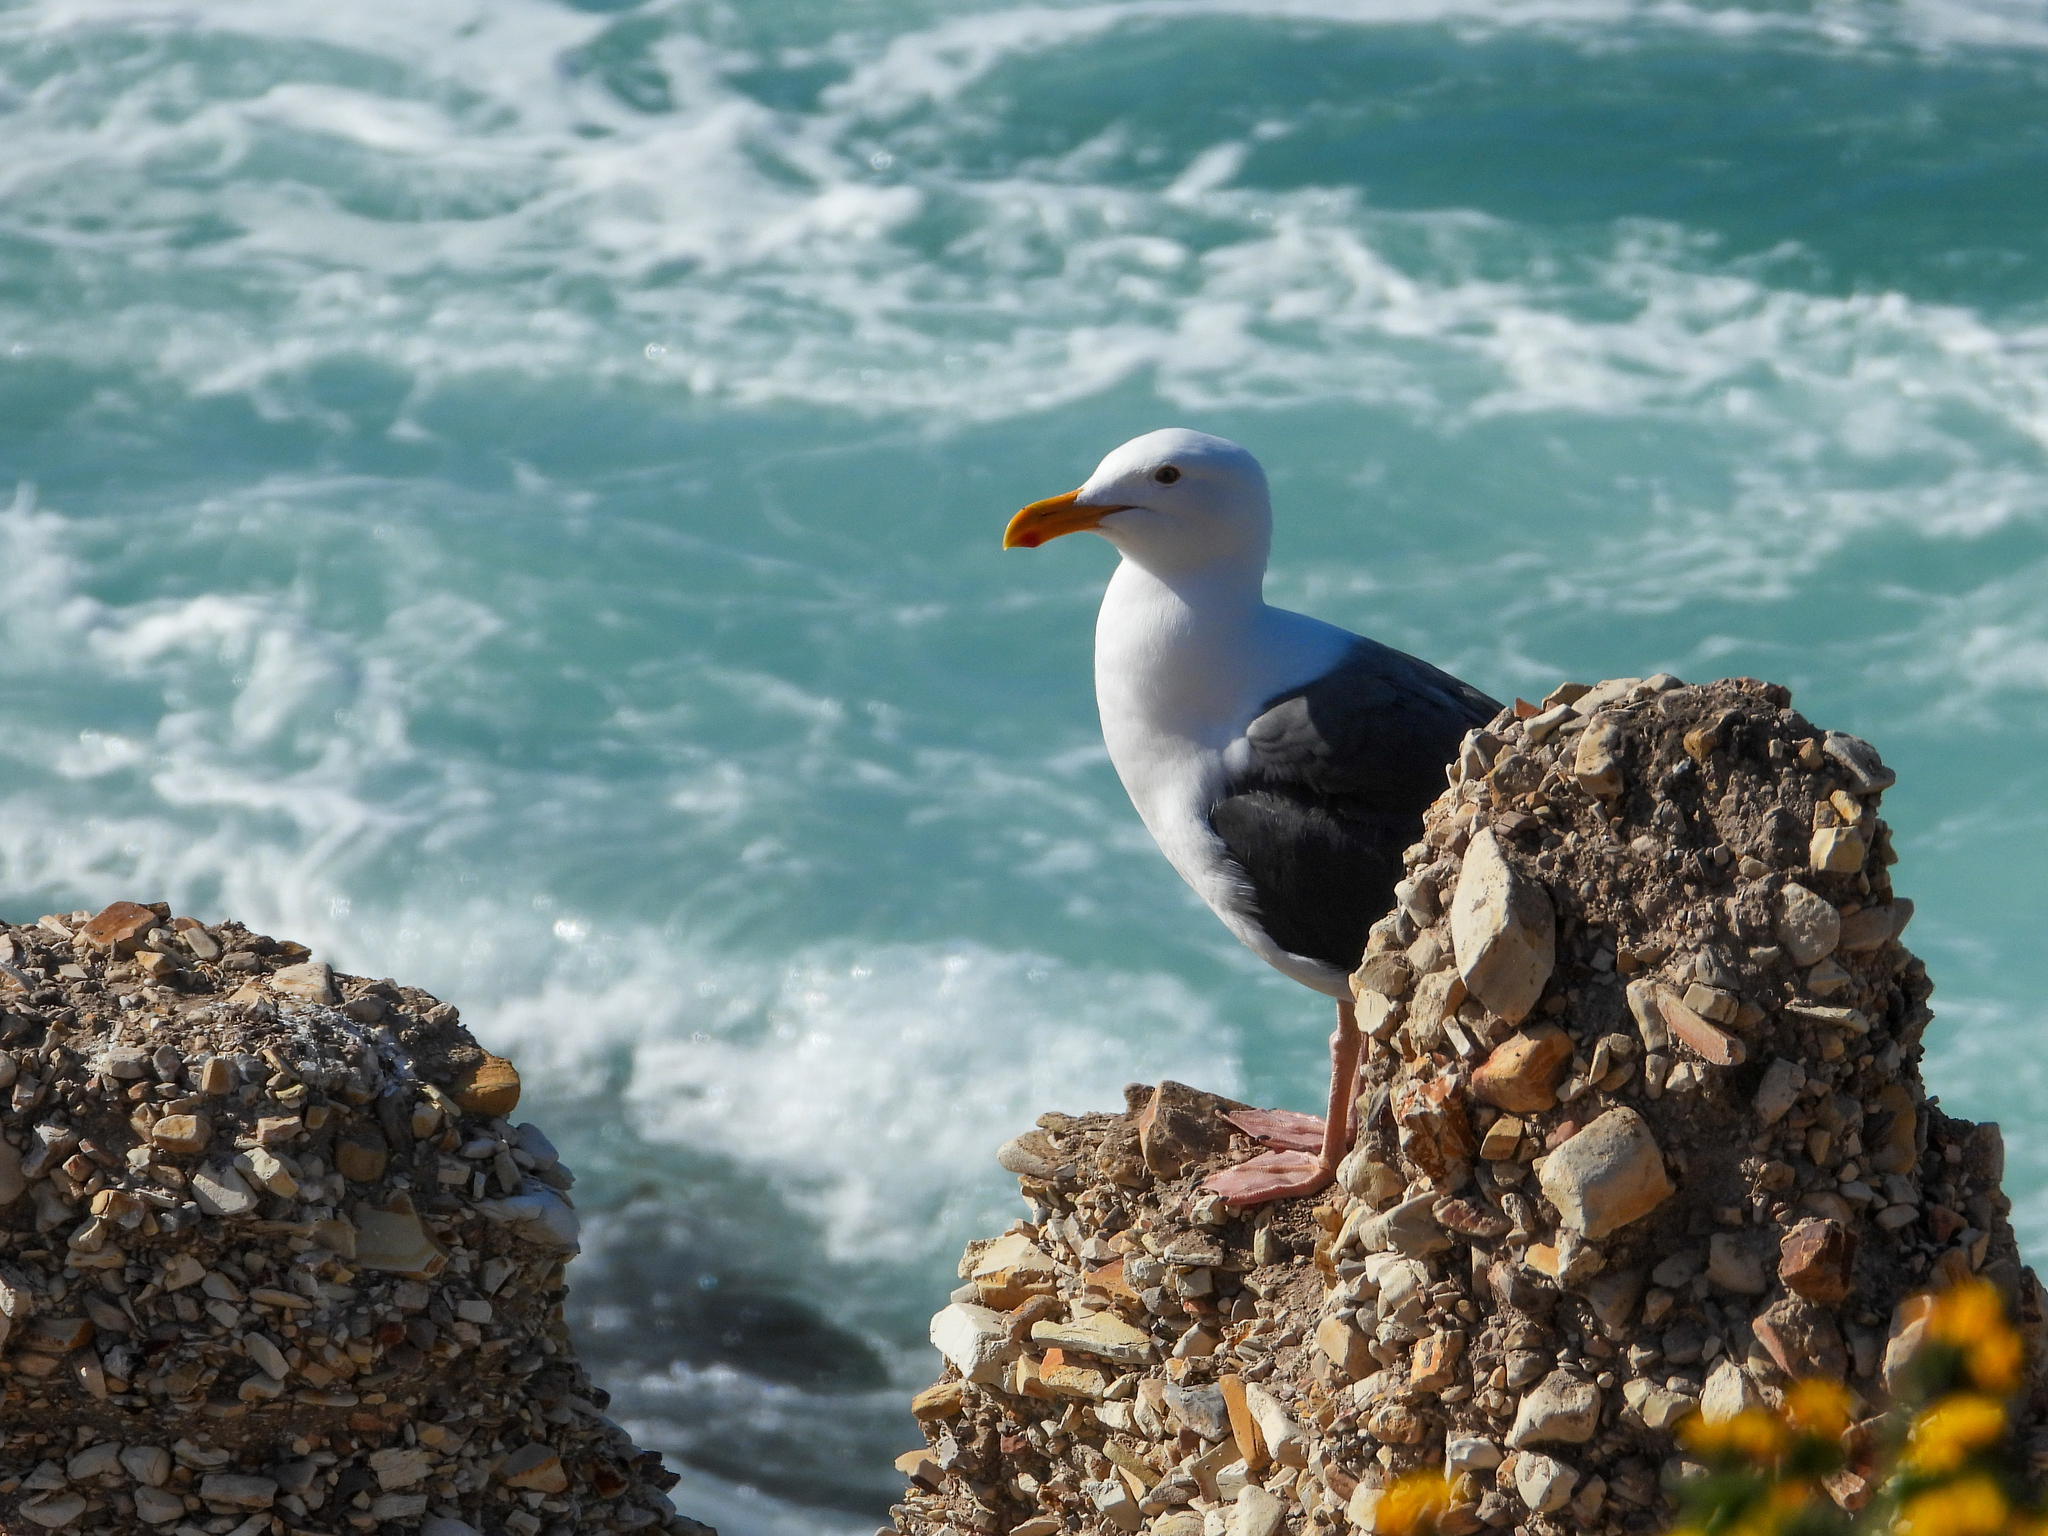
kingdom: Animalia
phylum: Chordata
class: Aves
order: Charadriiformes
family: Laridae
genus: Larus
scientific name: Larus occidentalis
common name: Western gull
